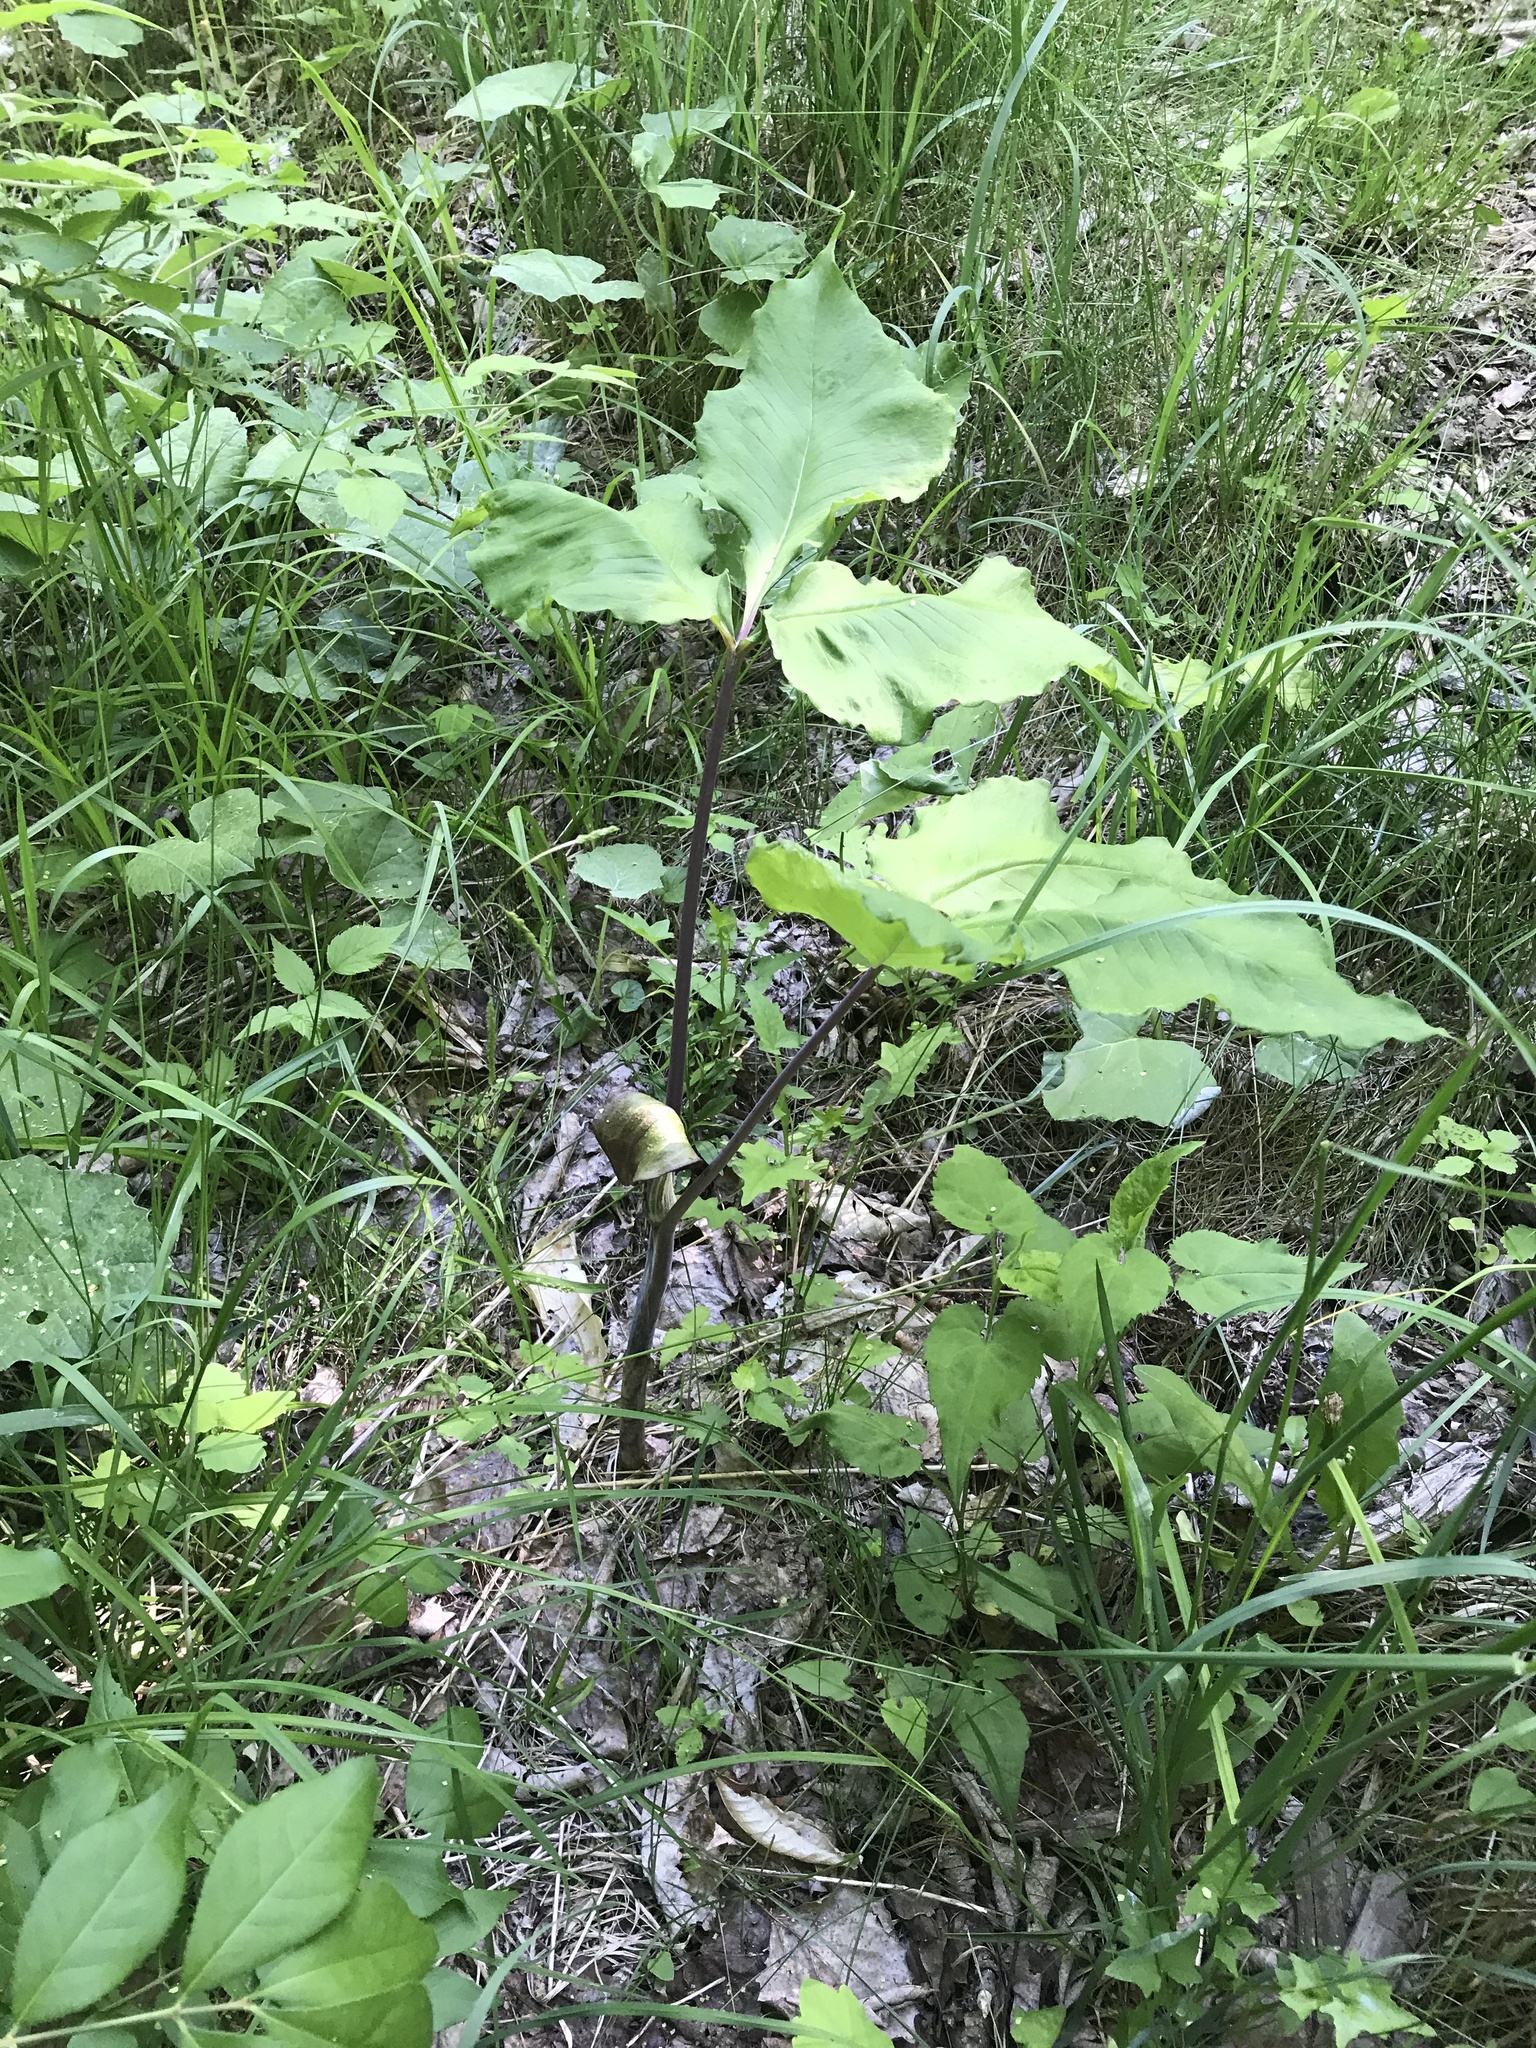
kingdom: Plantae
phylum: Tracheophyta
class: Liliopsida
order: Alismatales
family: Araceae
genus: Arisaema
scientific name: Arisaema triphyllum
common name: Jack-in-the-pulpit
